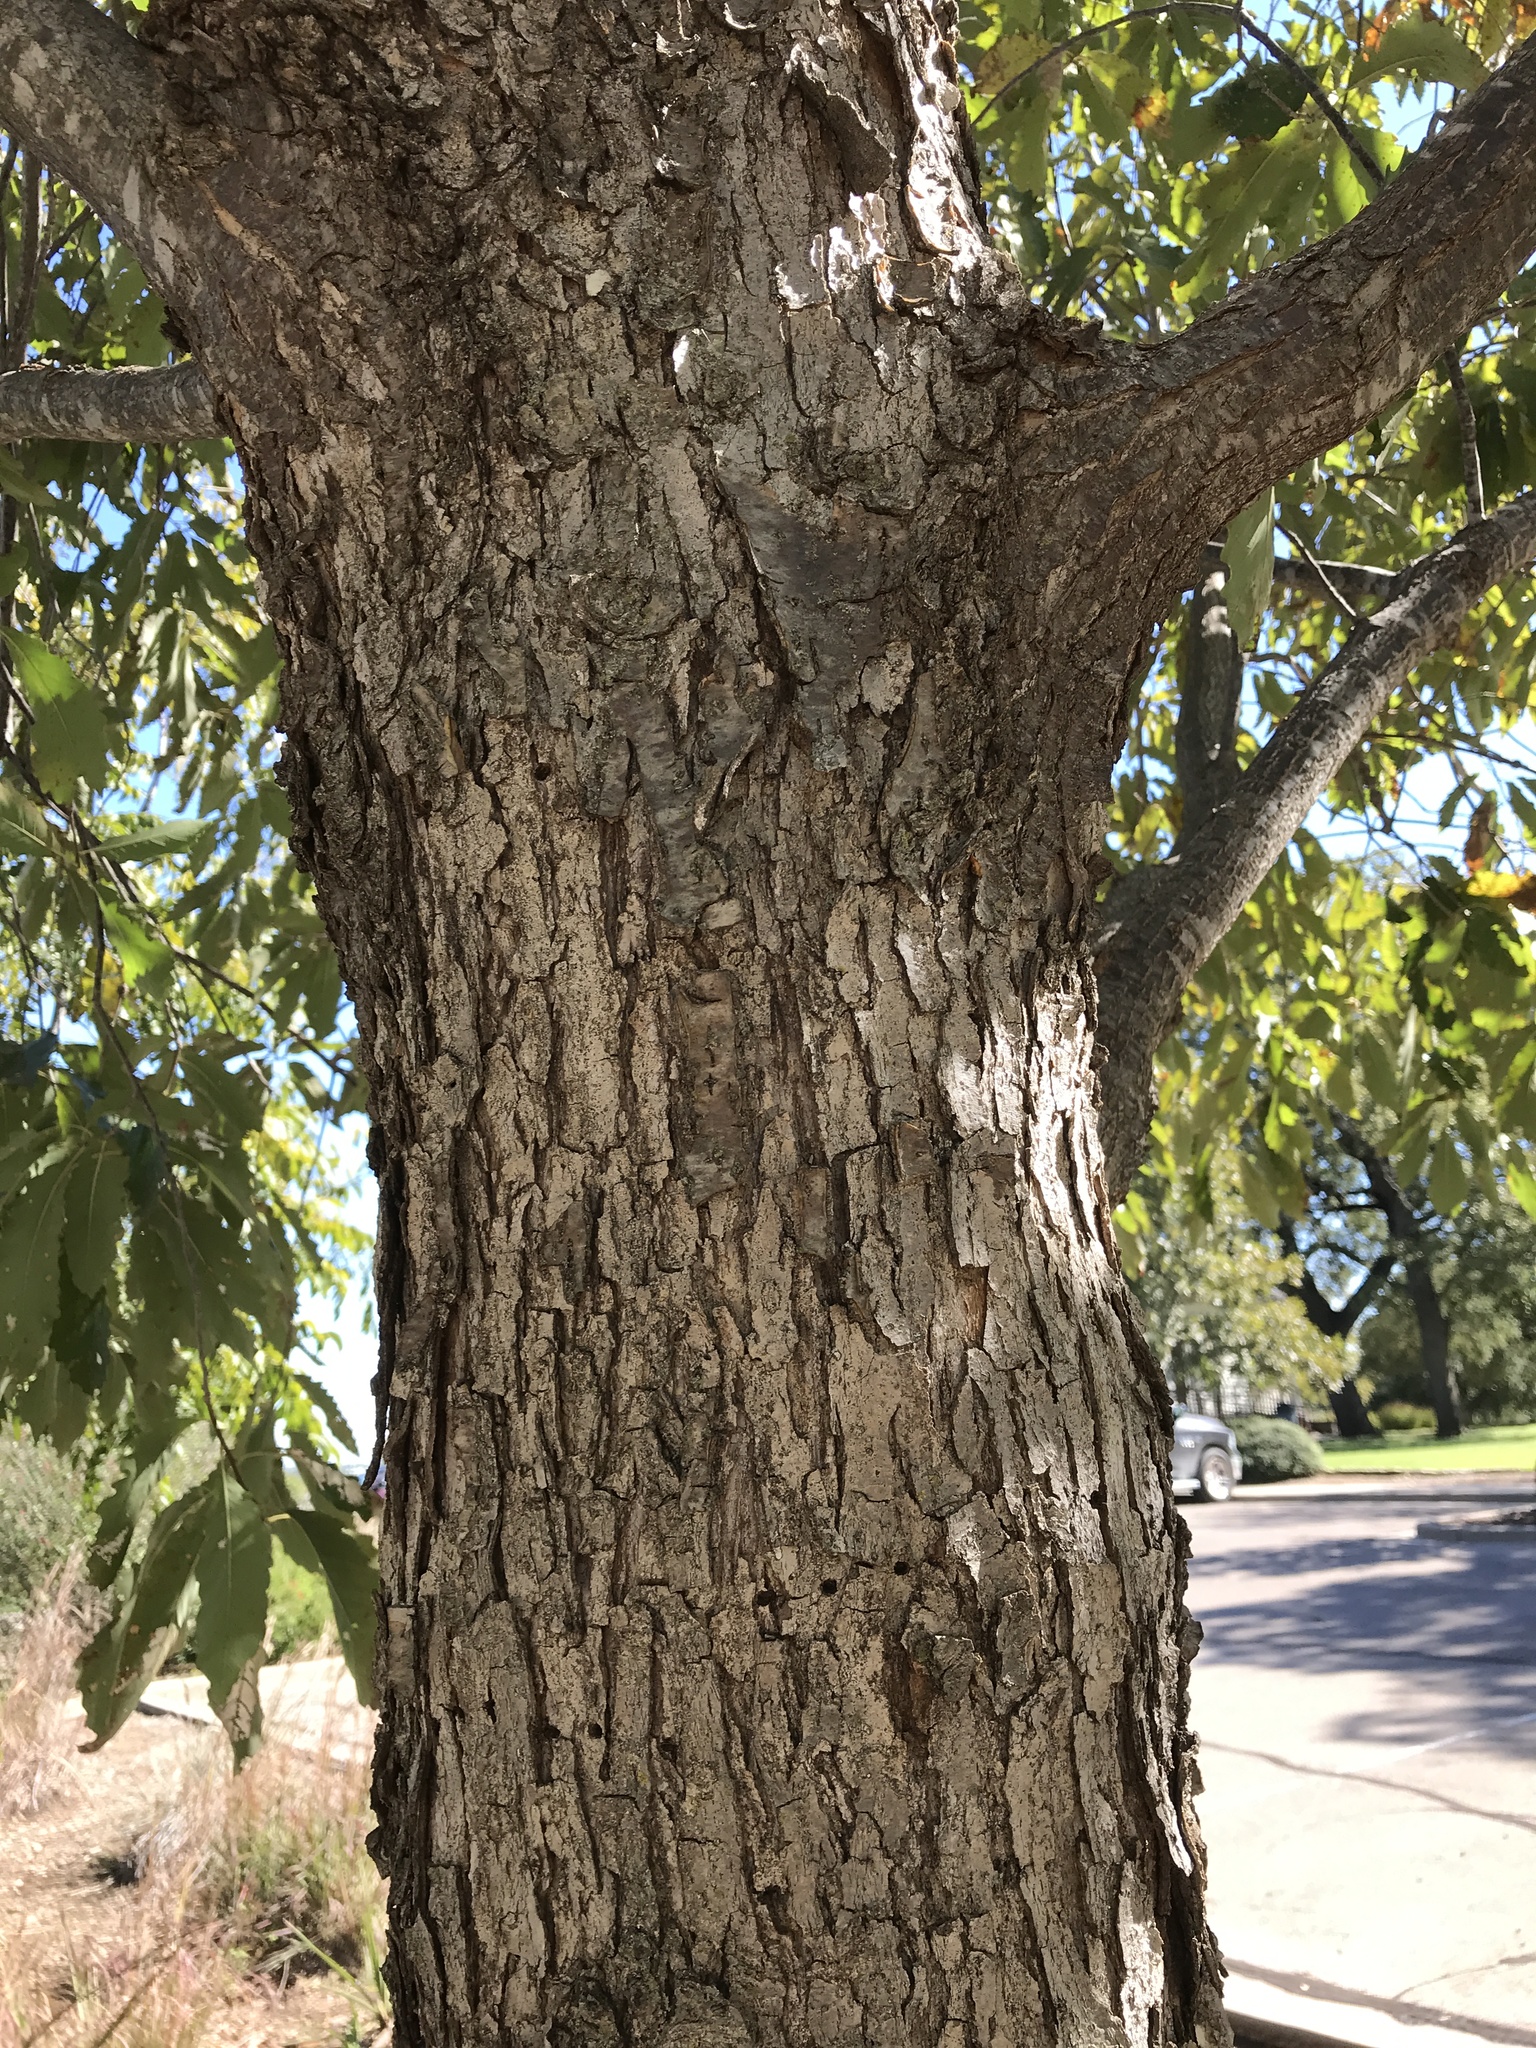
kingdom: Plantae
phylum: Tracheophyta
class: Magnoliopsida
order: Fagales
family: Fagaceae
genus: Quercus
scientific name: Quercus muehlenbergii
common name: Chinkapin oak
